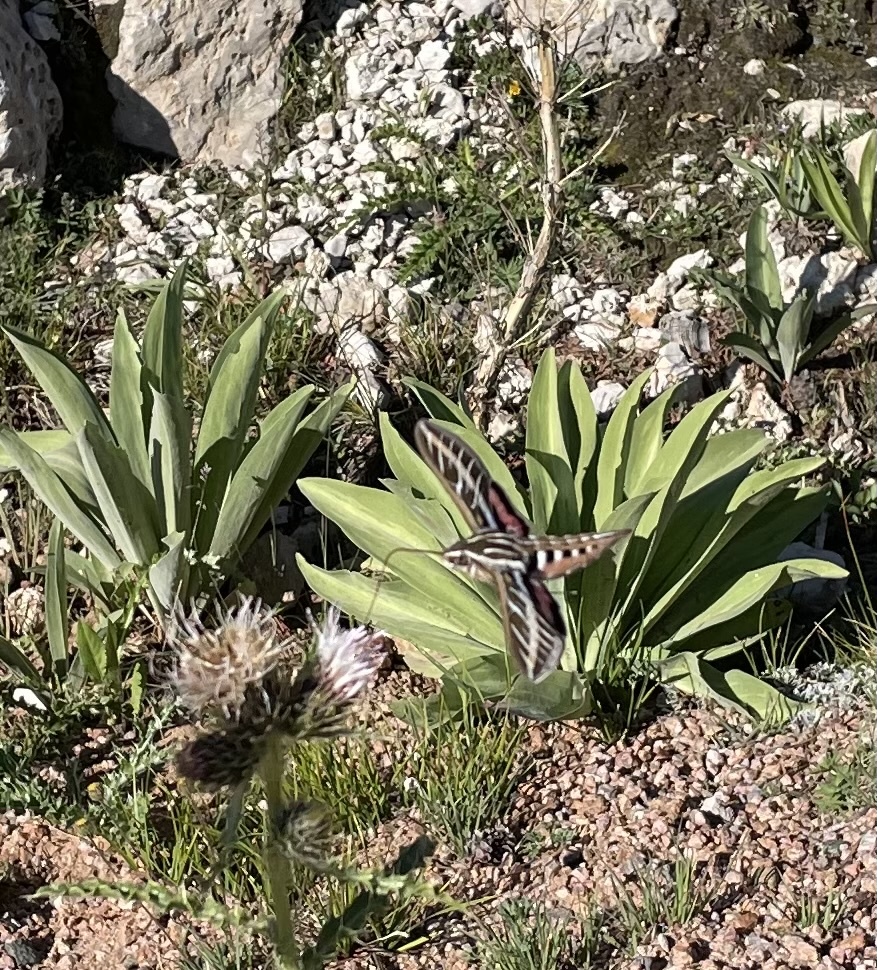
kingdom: Animalia
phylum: Arthropoda
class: Insecta
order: Lepidoptera
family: Sphingidae
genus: Hyles
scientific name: Hyles lineata
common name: White-lined sphinx
